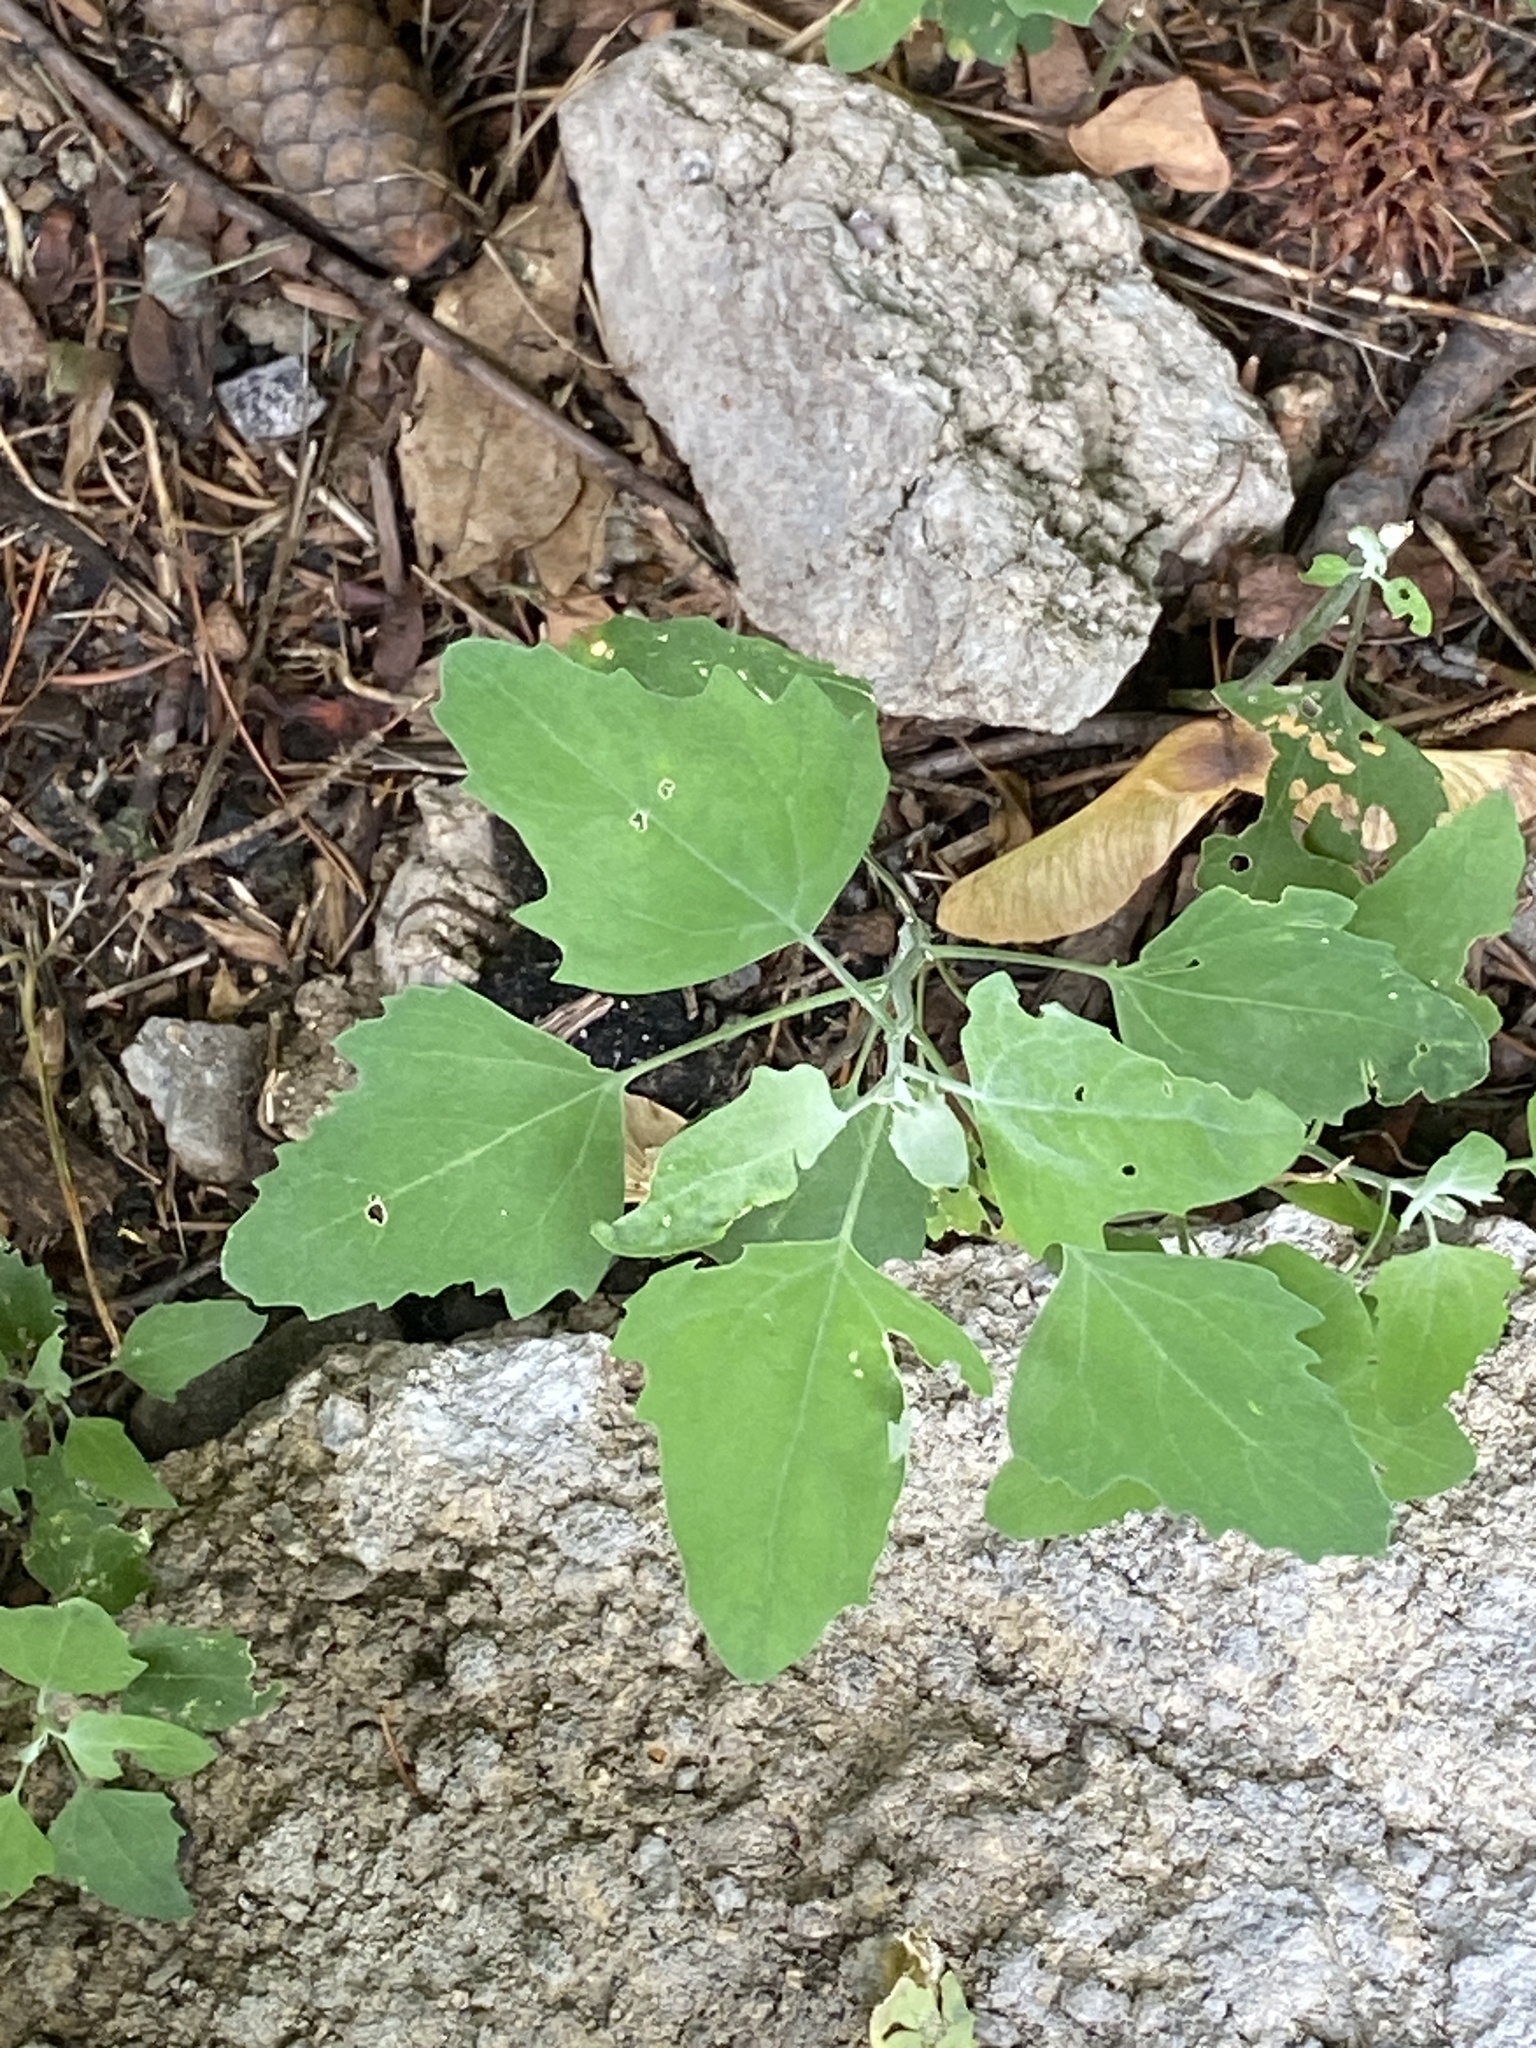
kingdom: Plantae
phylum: Tracheophyta
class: Magnoliopsida
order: Caryophyllales
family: Amaranthaceae
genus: Chenopodium
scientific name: Chenopodium album
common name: Fat-hen
